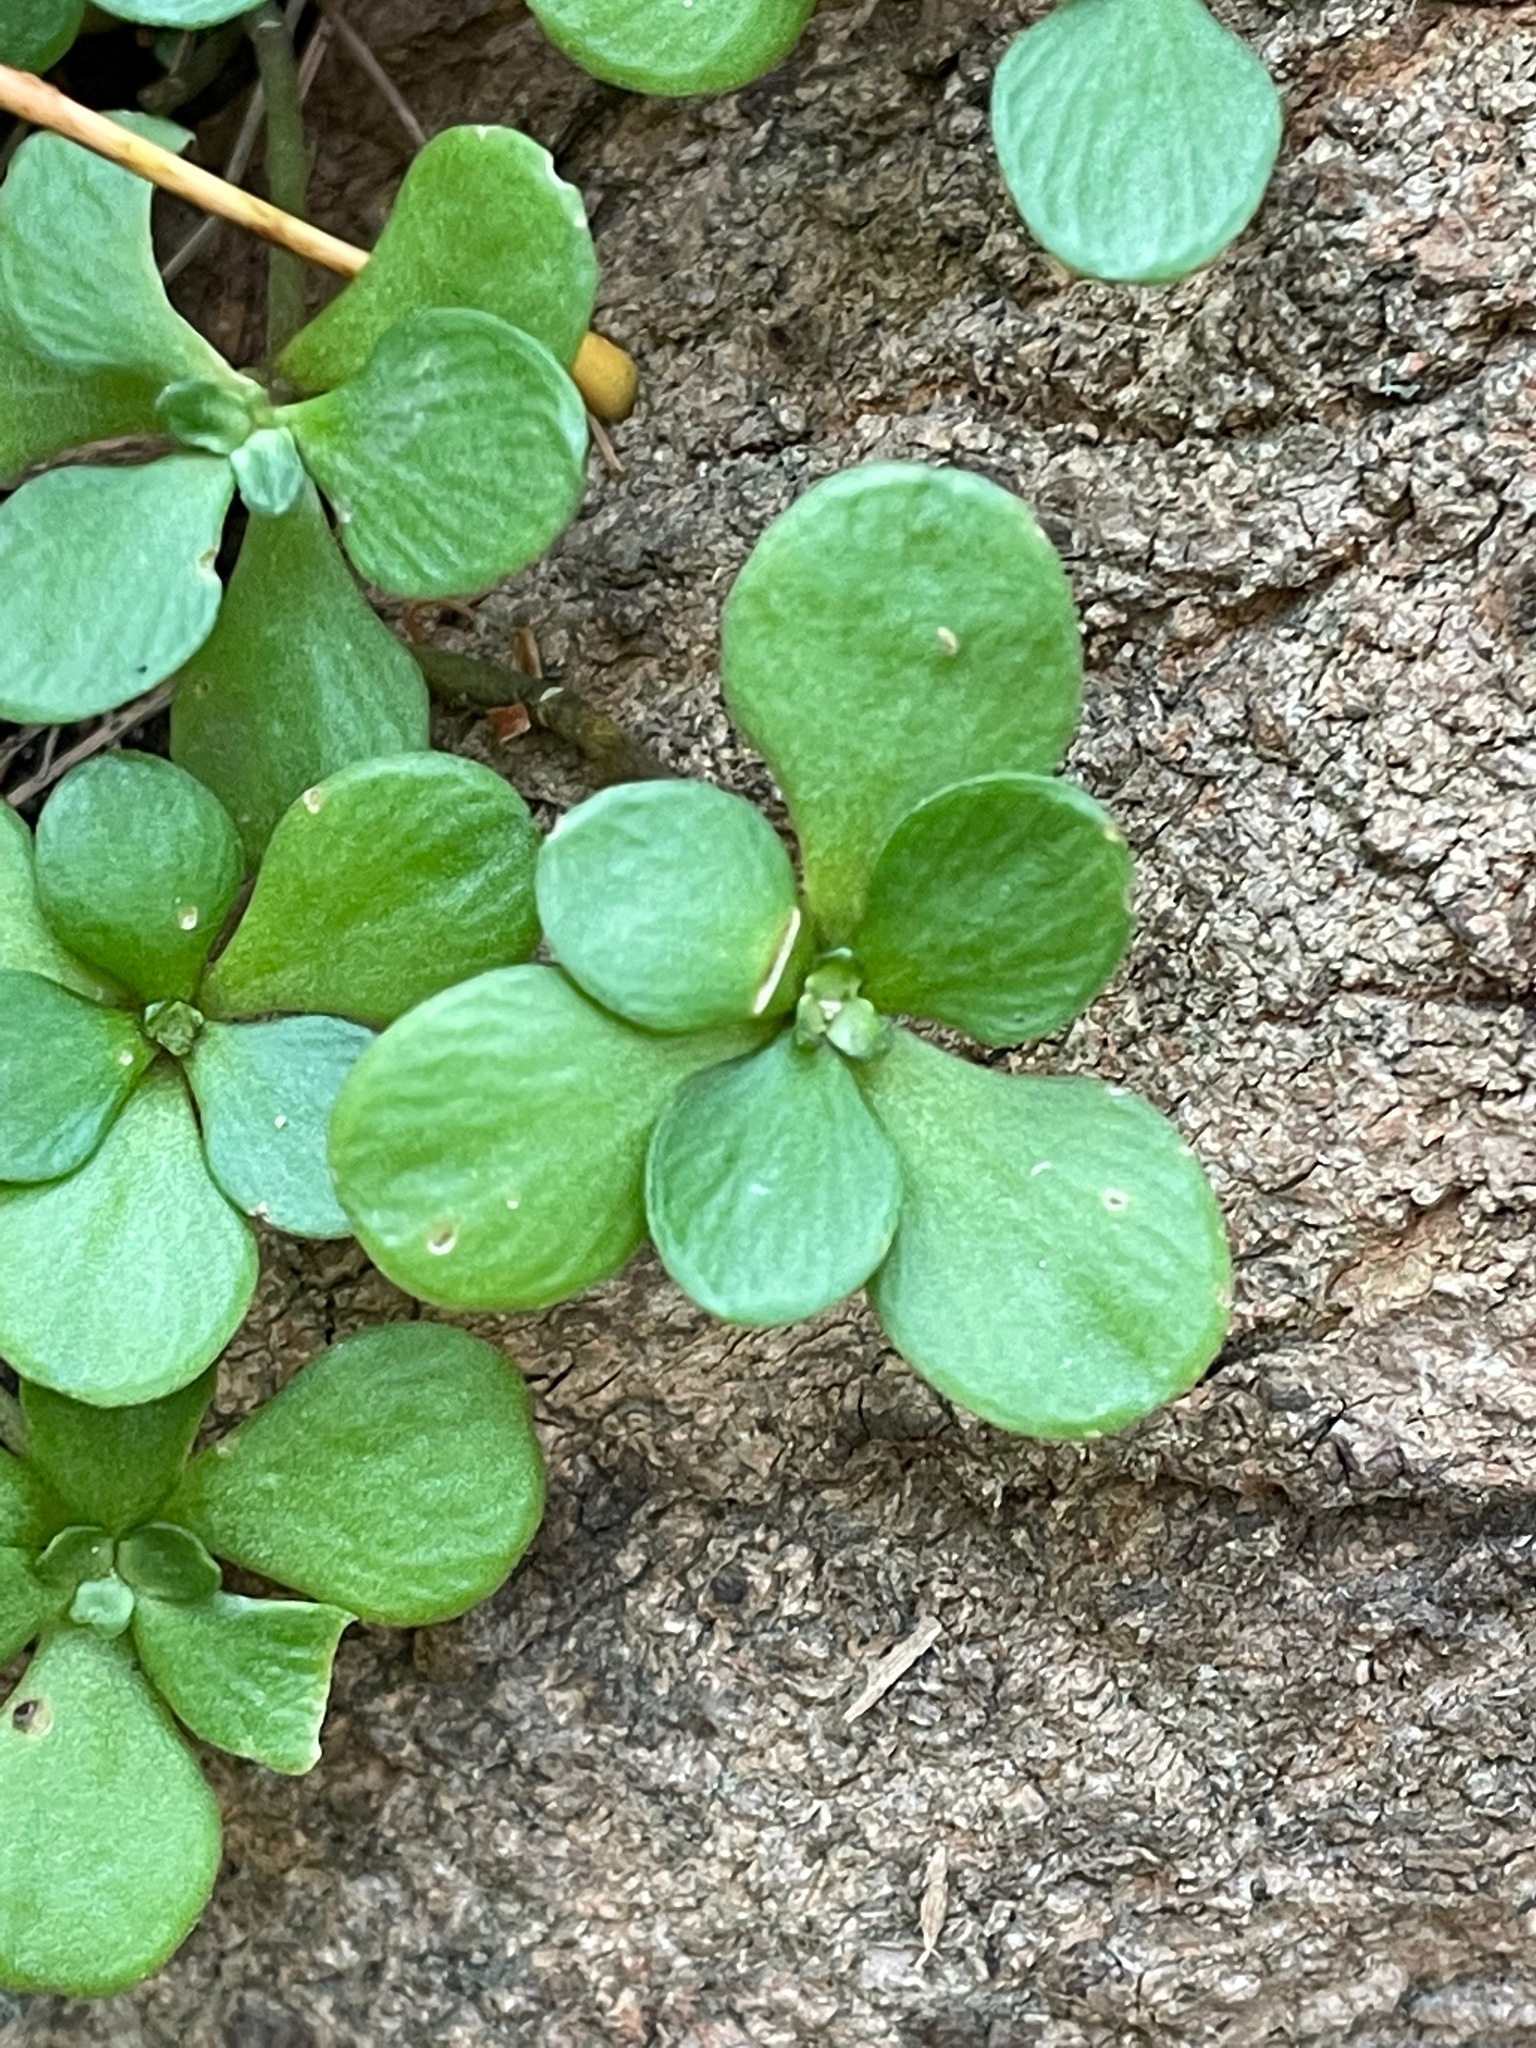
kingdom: Plantae
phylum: Tracheophyta
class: Magnoliopsida
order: Saxifragales
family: Crassulaceae
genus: Sedum
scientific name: Sedum ternatum
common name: Wild stonecrop
